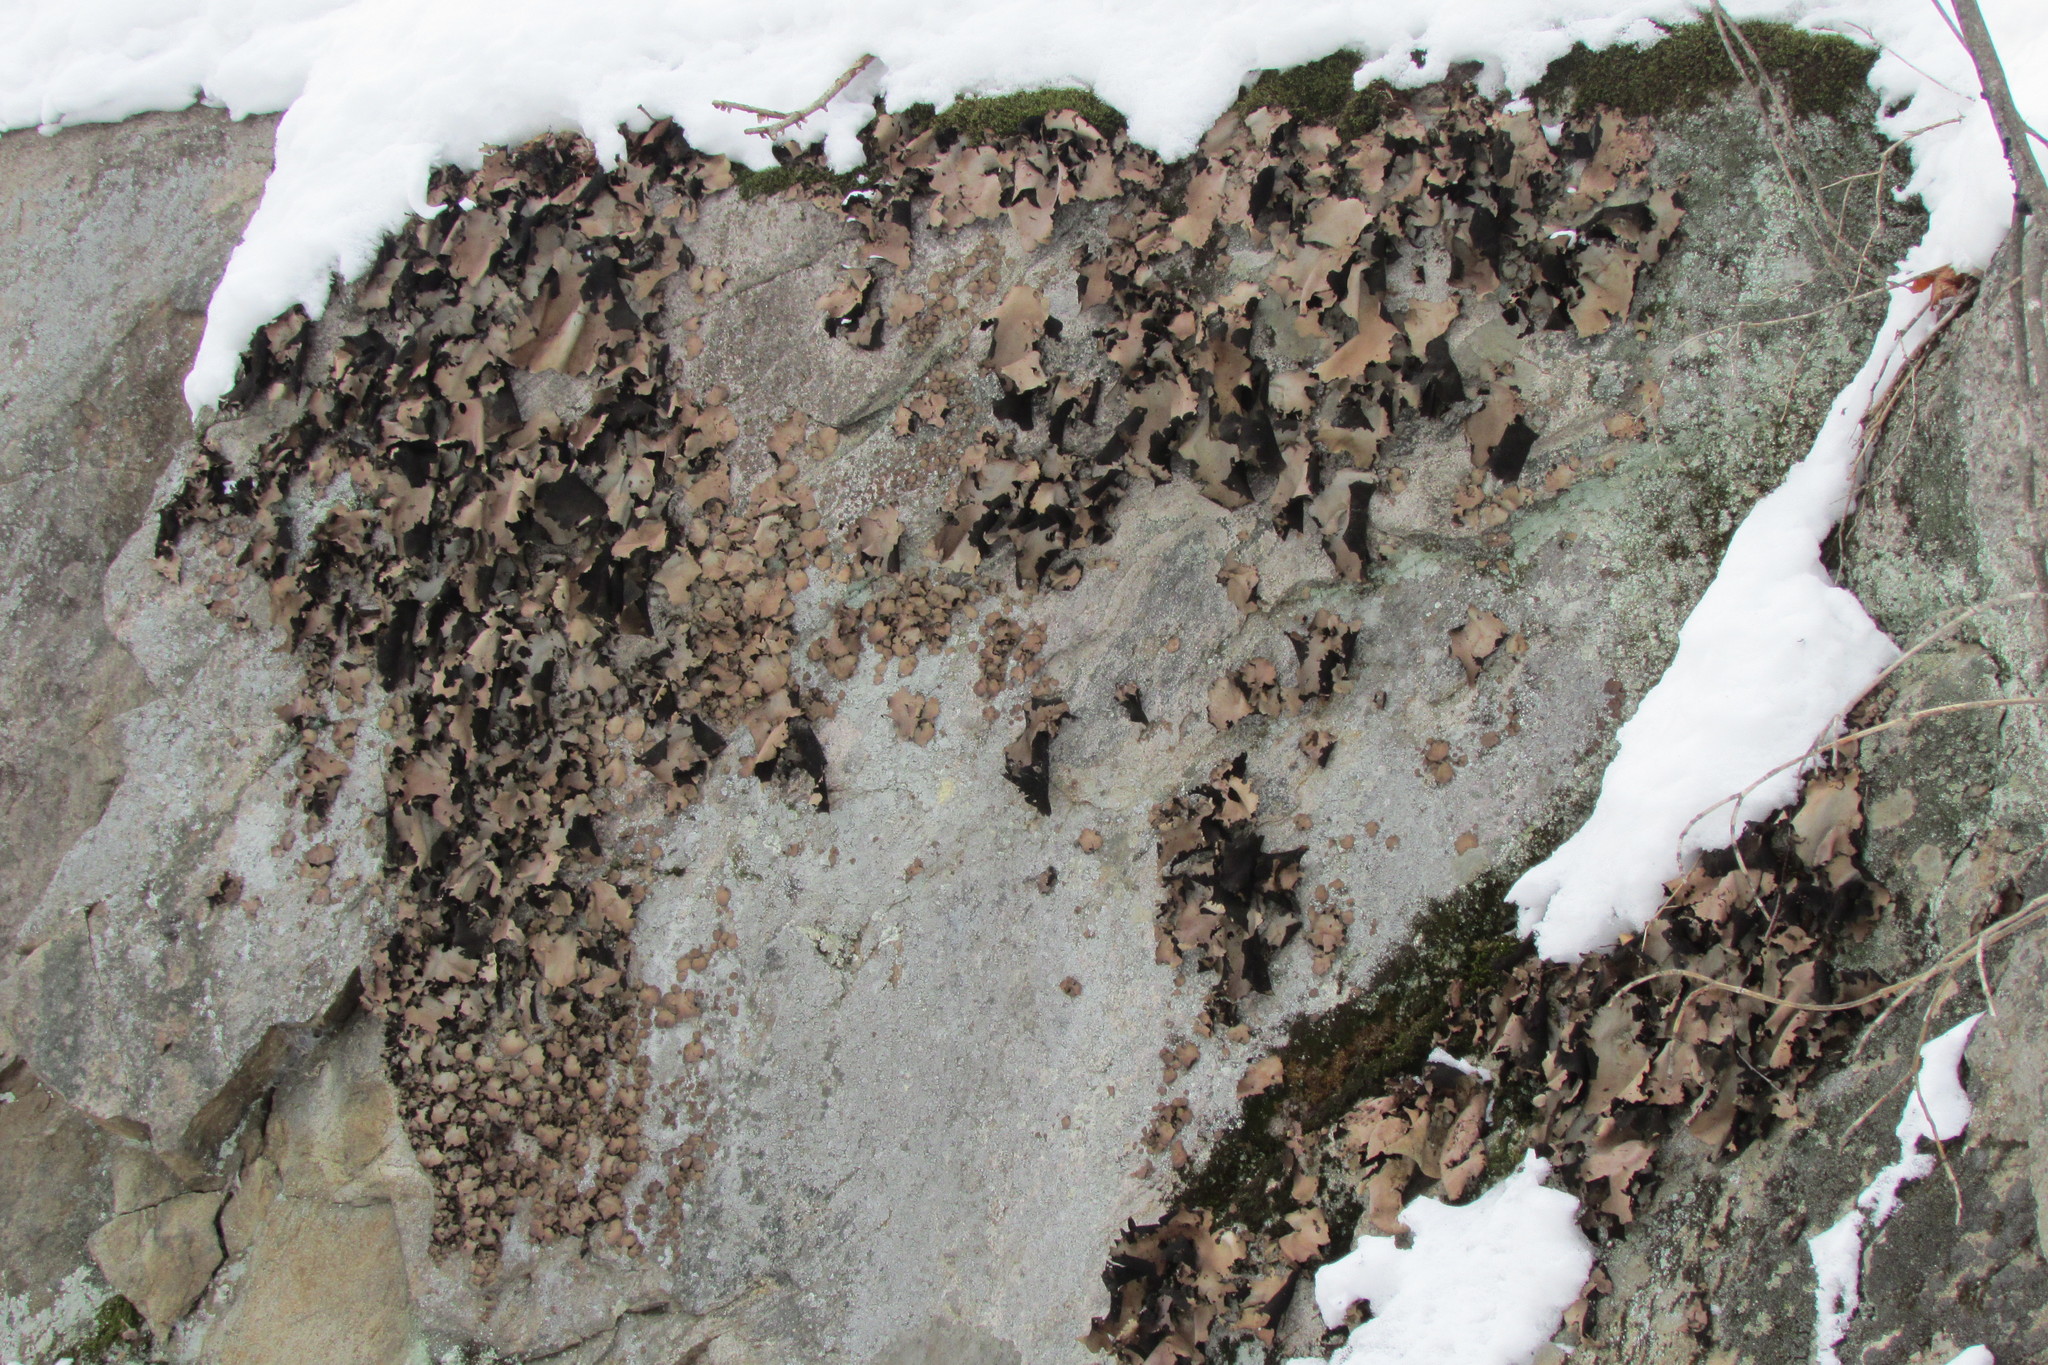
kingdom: Fungi
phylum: Ascomycota
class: Lecanoromycetes
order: Umbilicariales
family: Umbilicariaceae
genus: Umbilicaria
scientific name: Umbilicaria mammulata
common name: Smooth rock tripe
